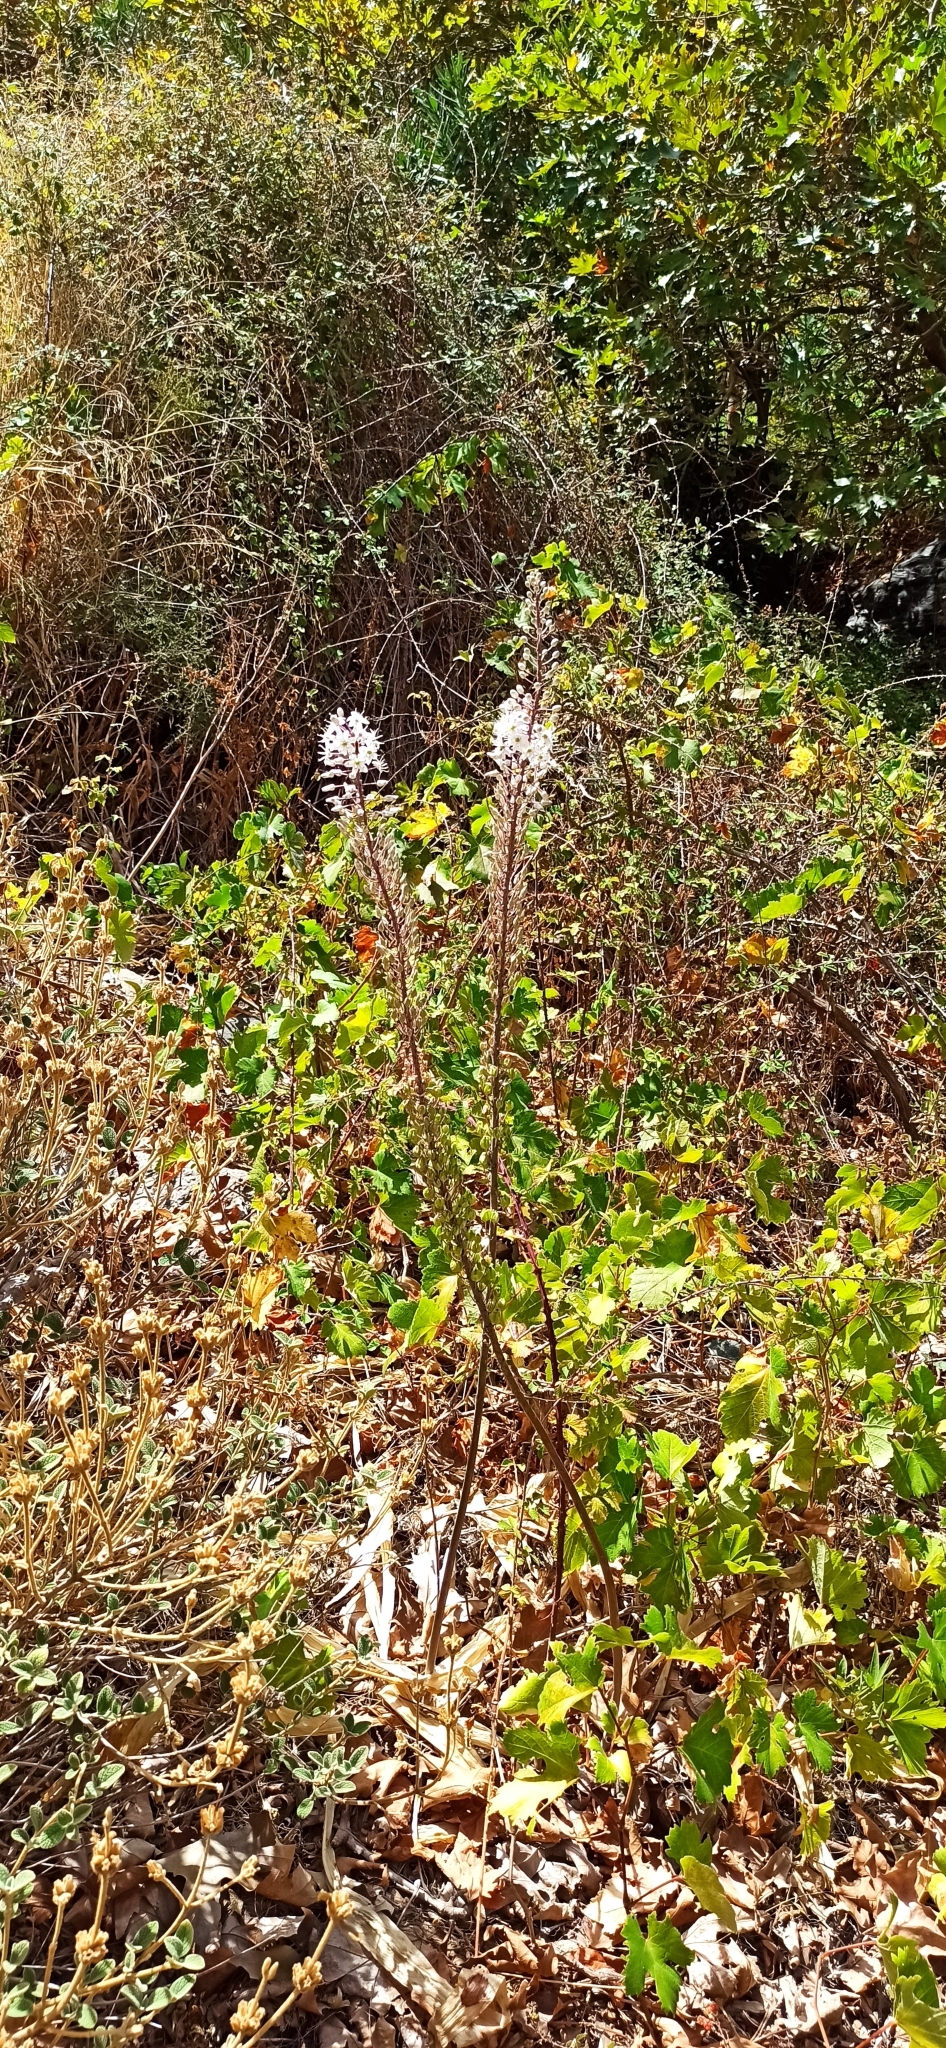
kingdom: Plantae
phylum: Tracheophyta
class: Liliopsida
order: Asparagales
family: Asparagaceae
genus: Drimia
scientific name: Drimia numidica
